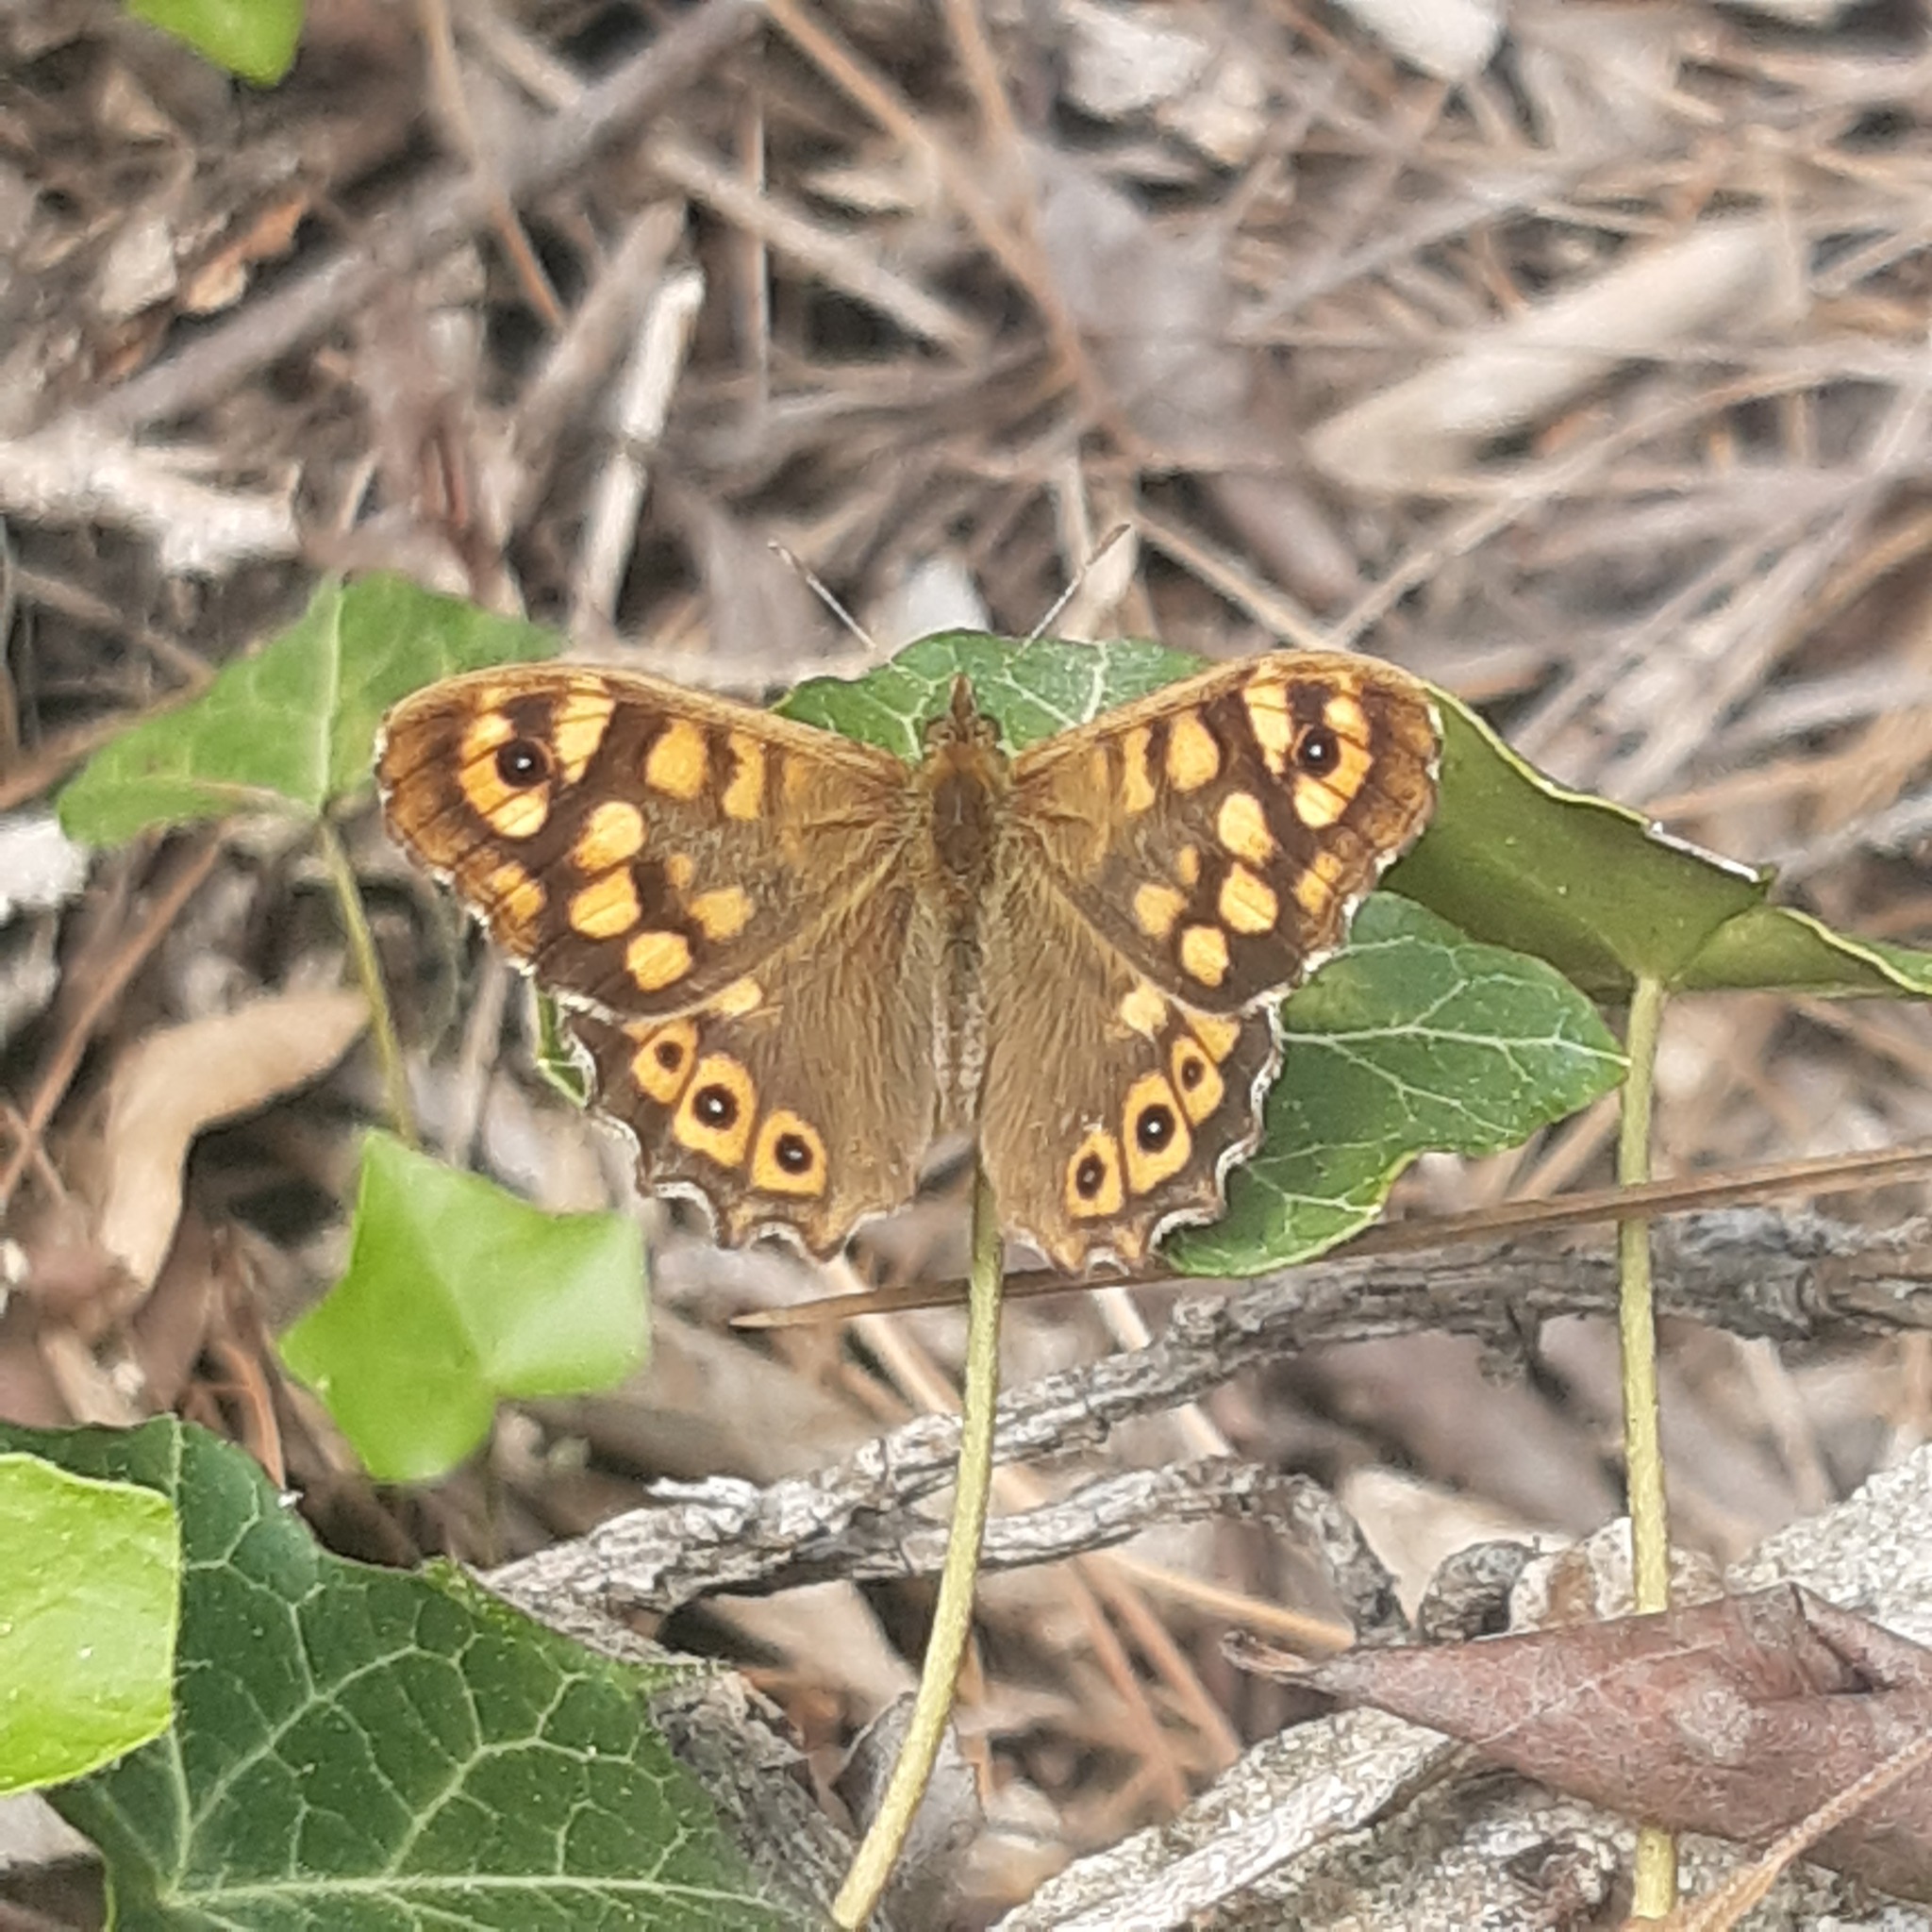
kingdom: Animalia
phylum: Arthropoda
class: Insecta
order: Lepidoptera
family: Nymphalidae
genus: Pararge
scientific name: Pararge aegeria
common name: Speckled wood
